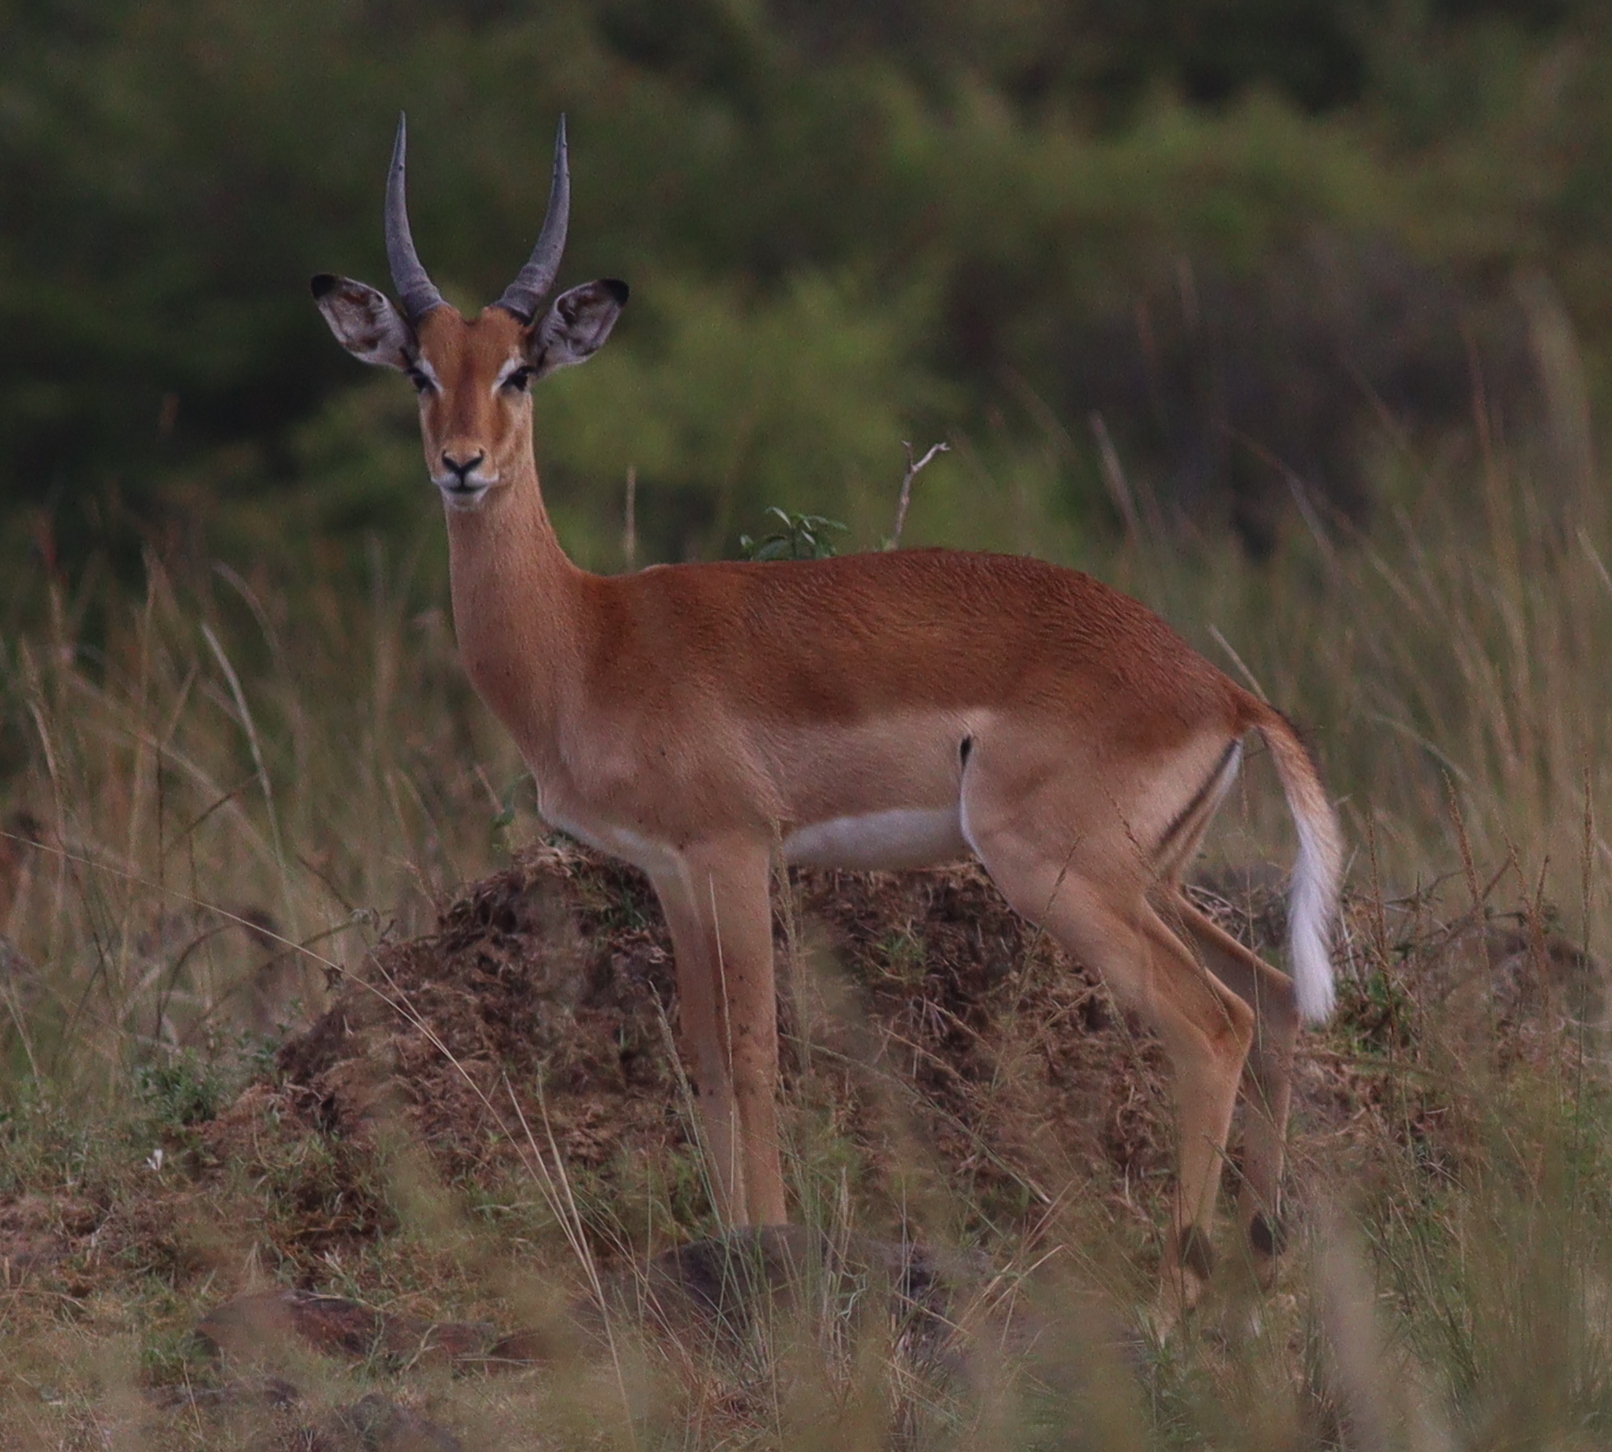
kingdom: Animalia
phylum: Chordata
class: Mammalia
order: Artiodactyla
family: Bovidae
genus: Aepyceros
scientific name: Aepyceros melampus
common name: Impala
